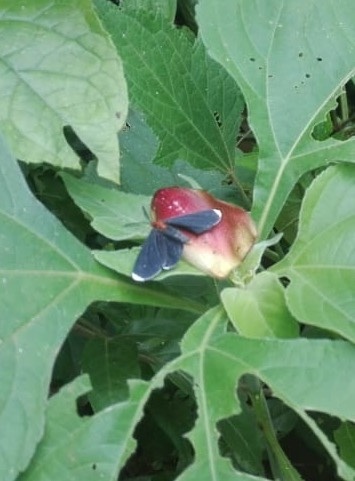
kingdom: Animalia
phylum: Arthropoda
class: Insecta
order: Lepidoptera
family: Geometridae
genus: Melanchroia
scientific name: Melanchroia chephise
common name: White-tipped black
